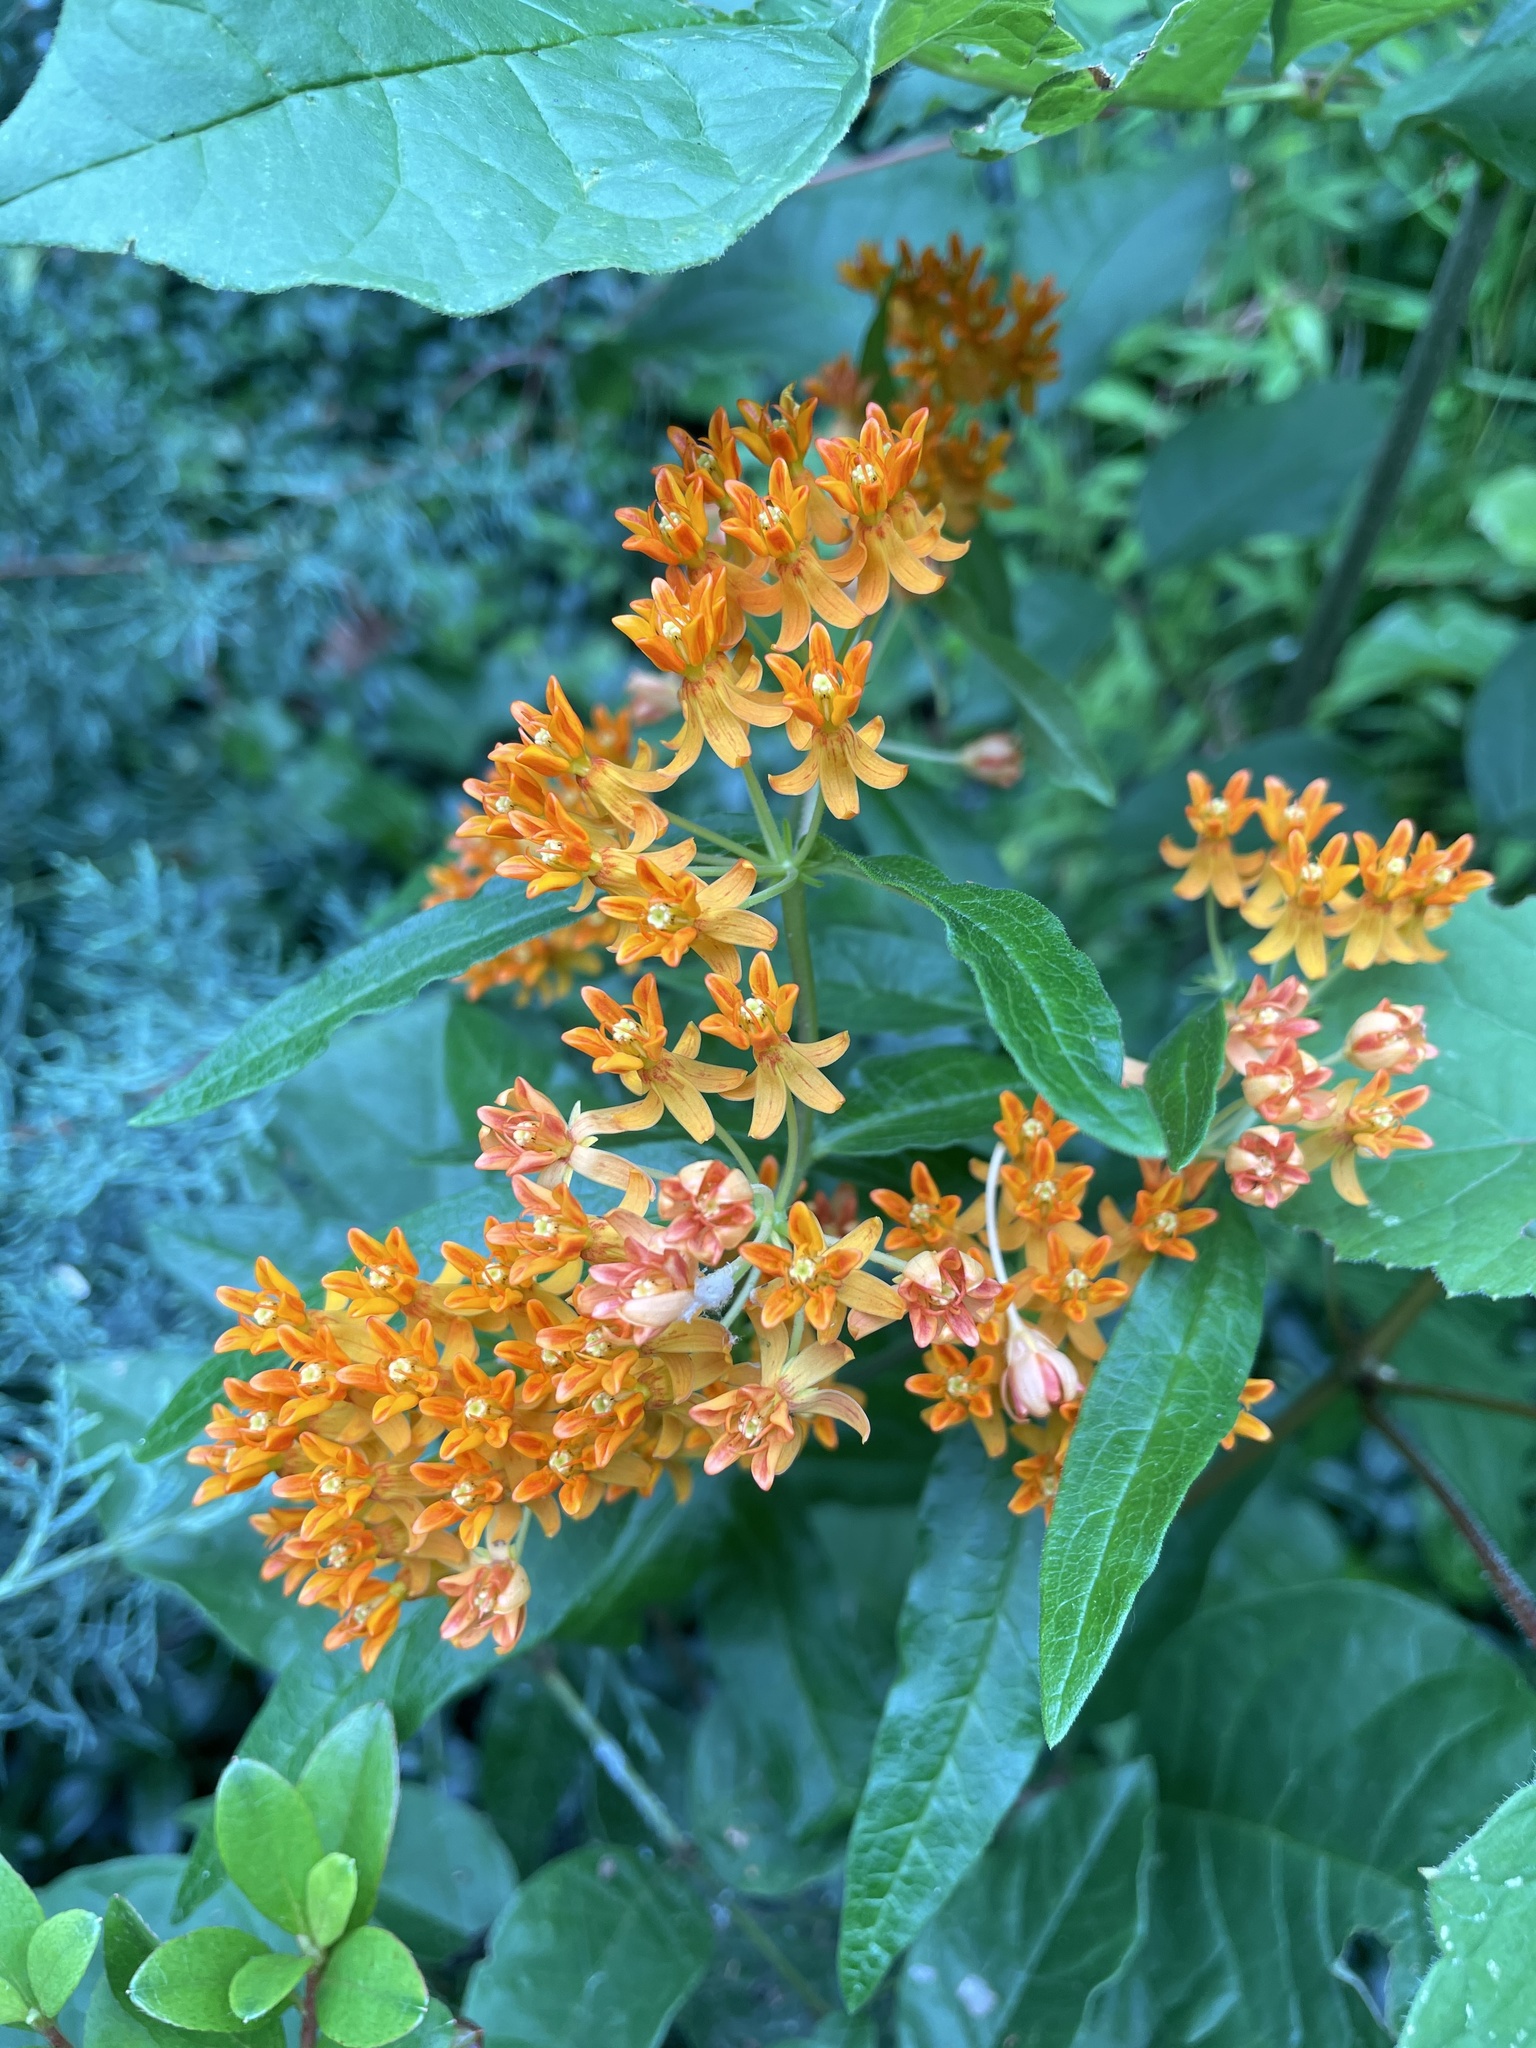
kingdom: Plantae
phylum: Tracheophyta
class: Magnoliopsida
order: Gentianales
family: Apocynaceae
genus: Asclepias
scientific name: Asclepias tuberosa
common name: Butterfly milkweed
